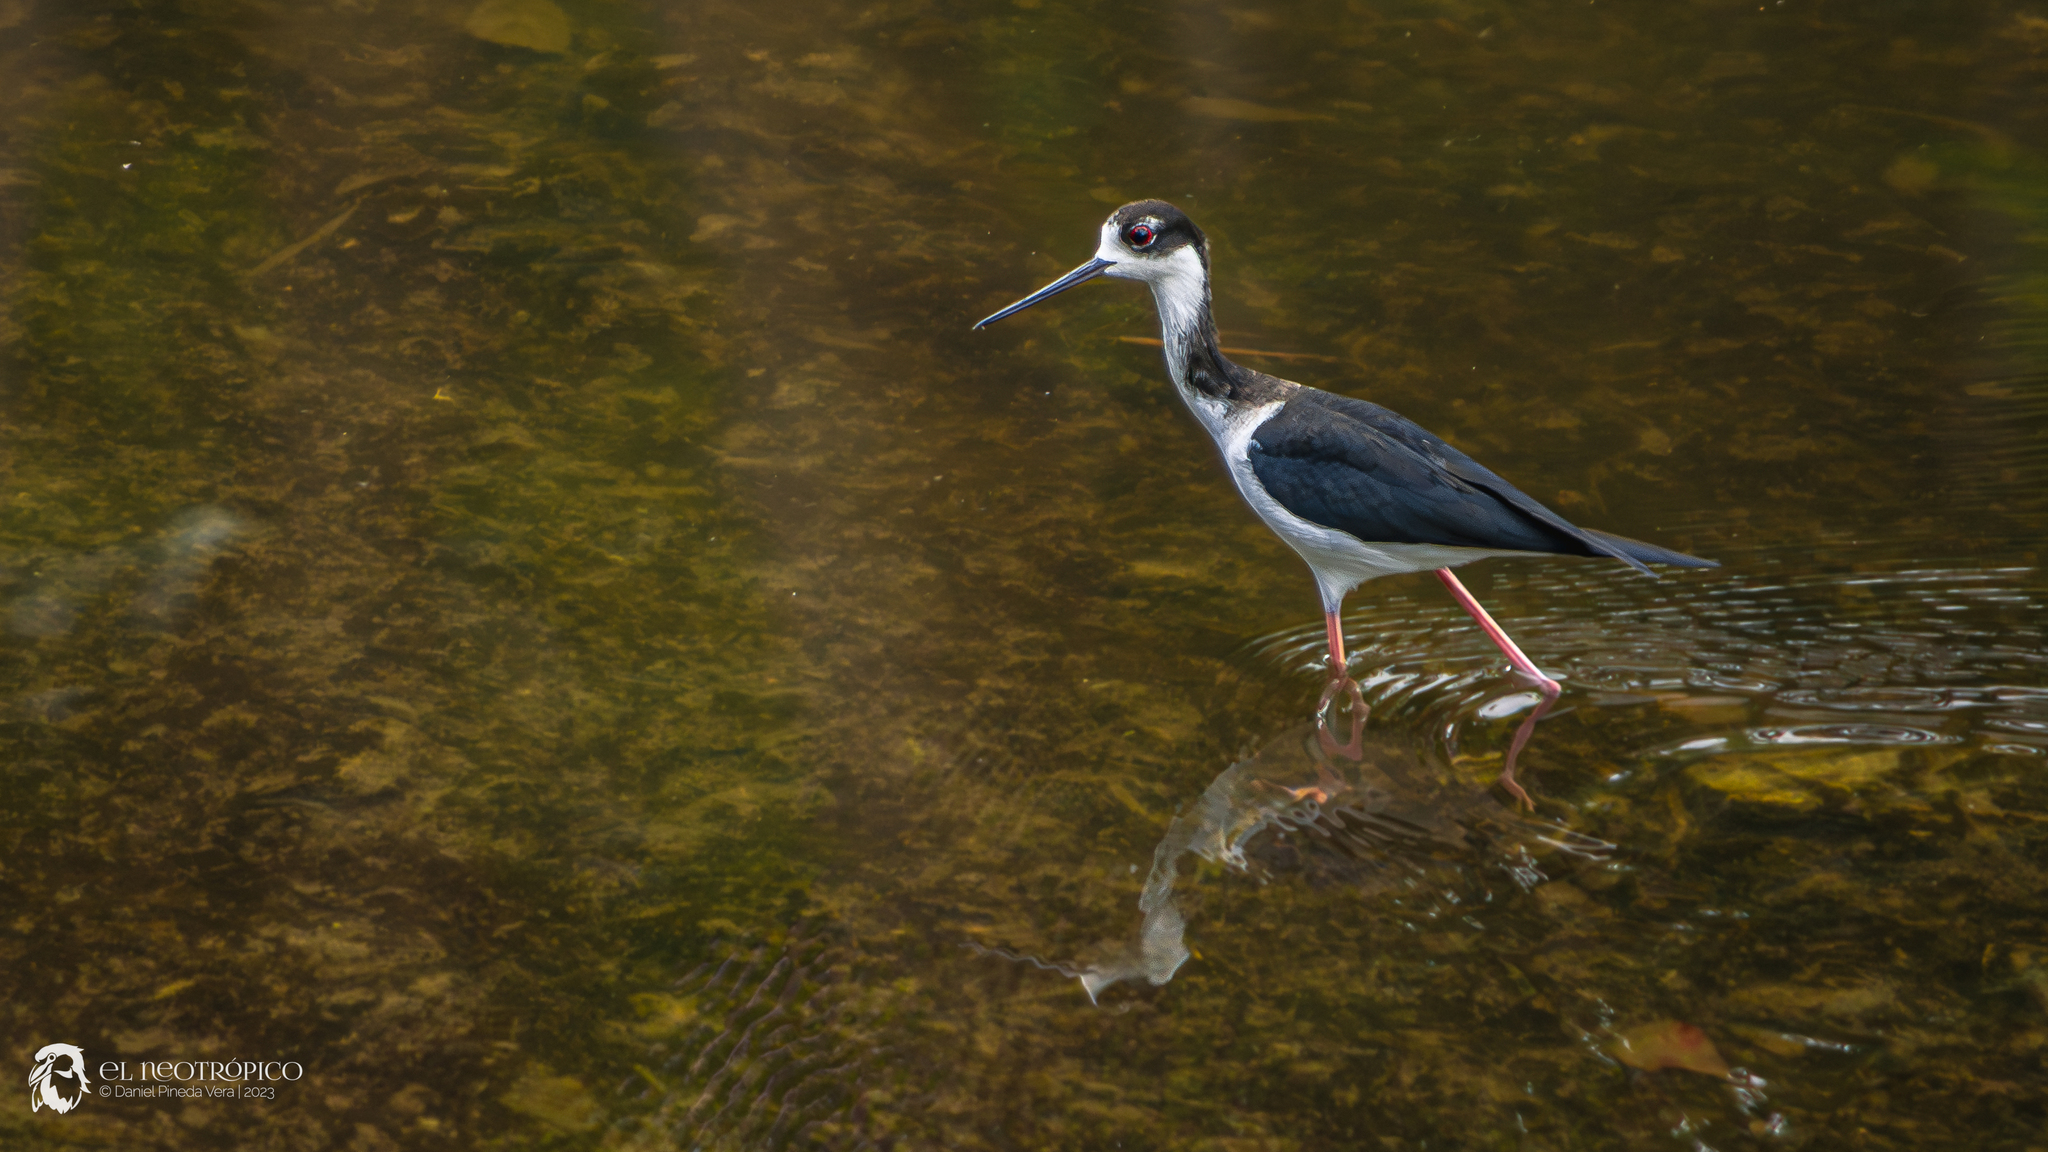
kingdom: Animalia
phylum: Chordata
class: Aves
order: Charadriiformes
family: Recurvirostridae
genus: Himantopus
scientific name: Himantopus mexicanus
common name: Black-necked stilt
